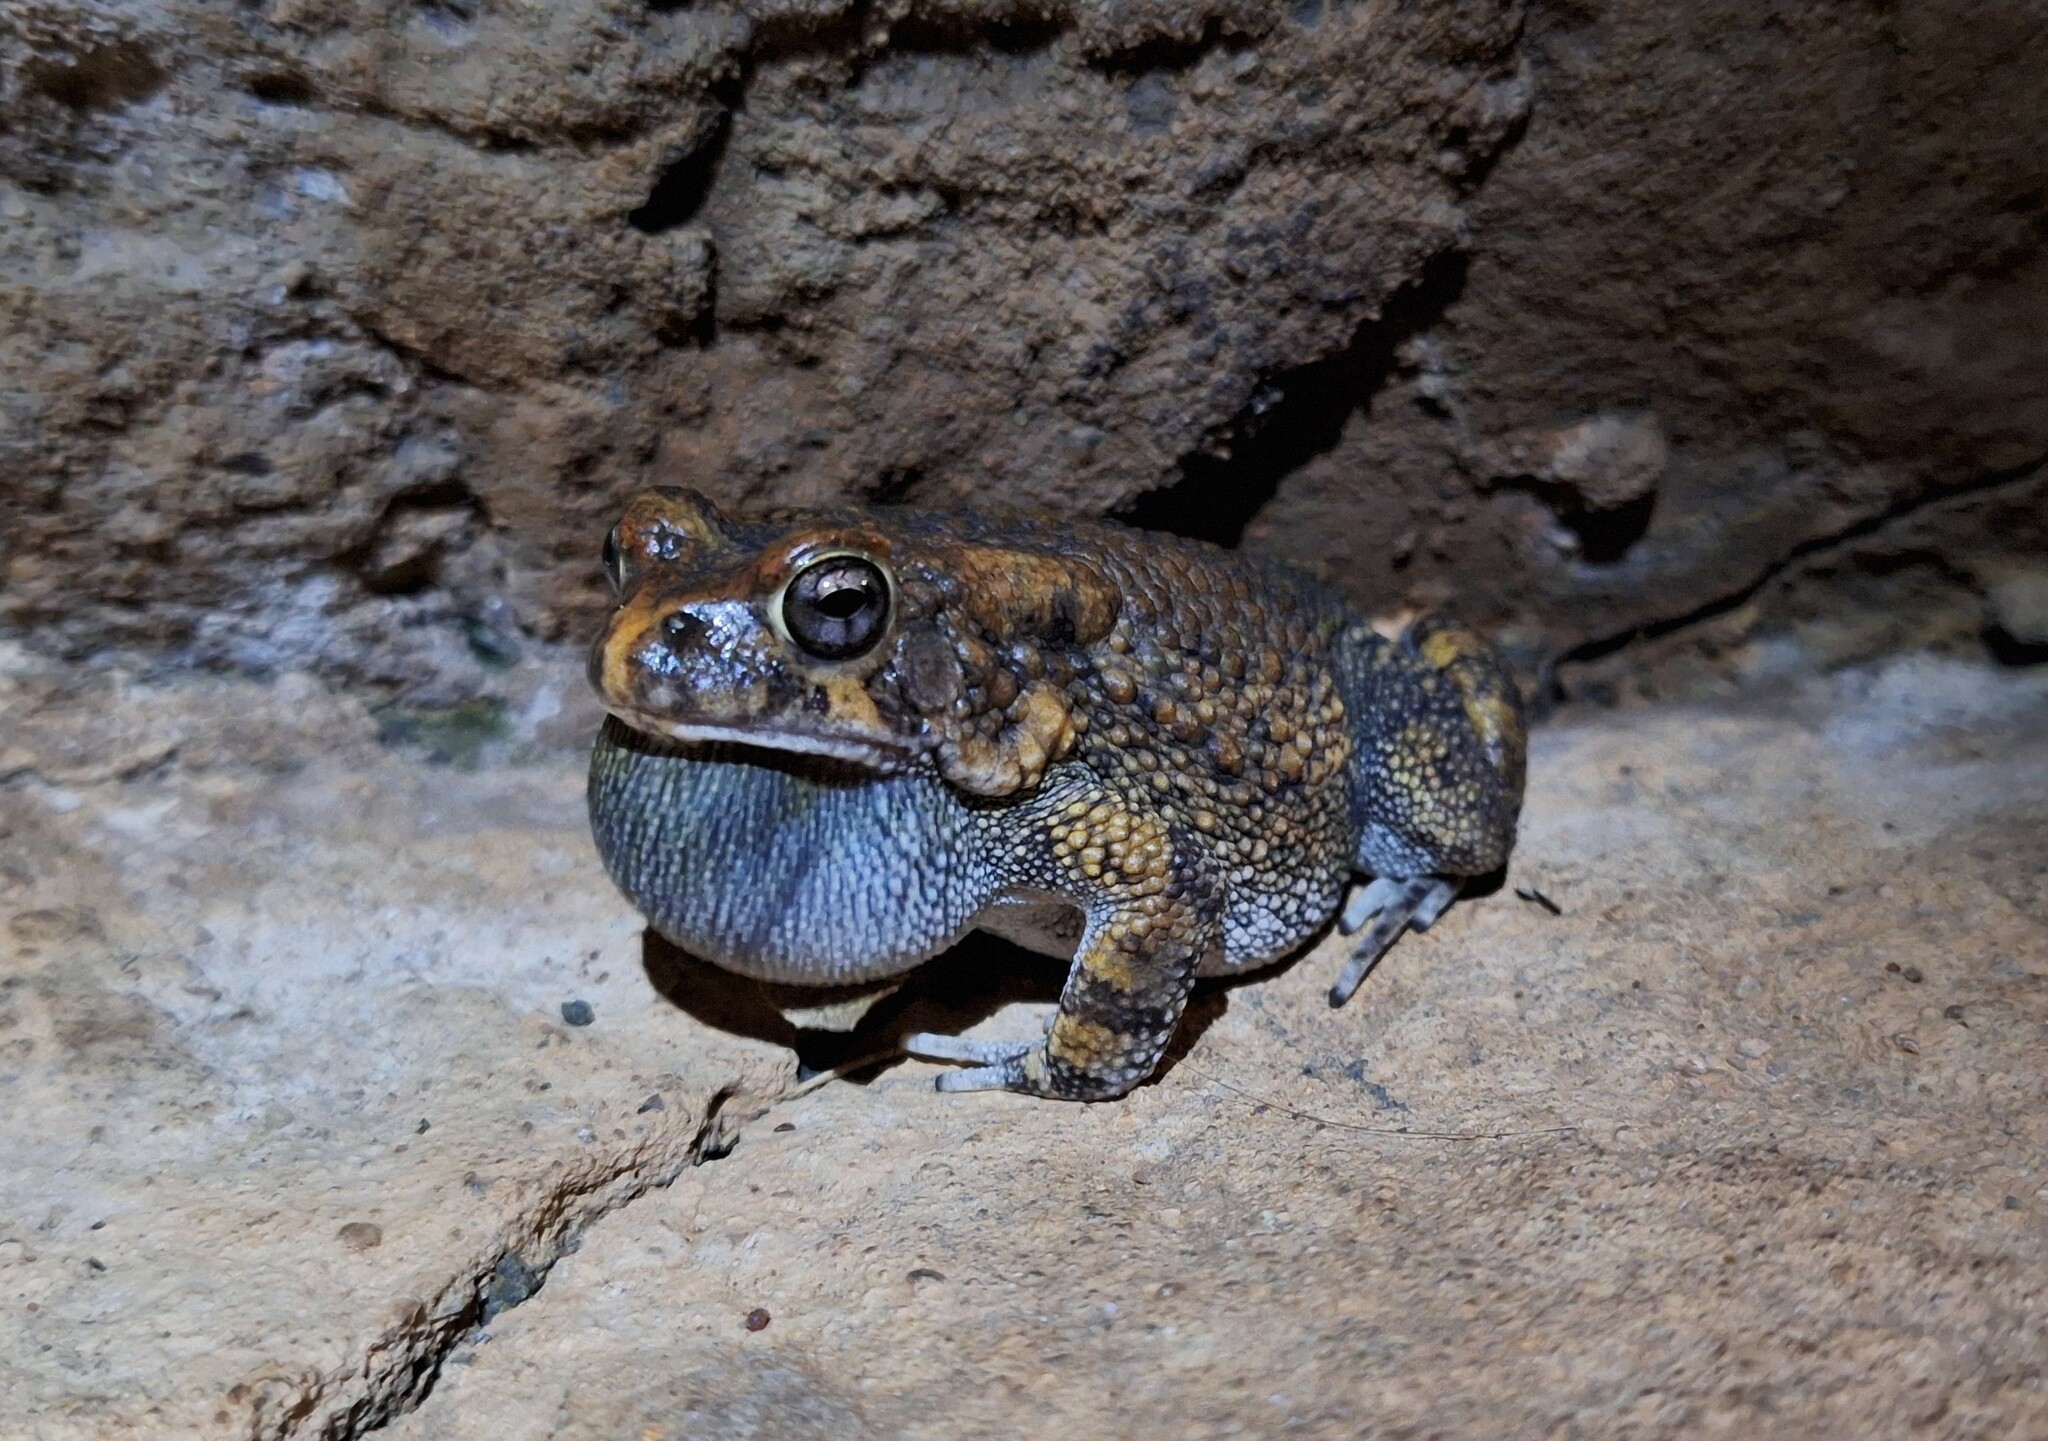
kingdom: Animalia
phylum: Chordata
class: Amphibia
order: Anura
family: Bufonidae
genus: Sclerophrys
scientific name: Sclerophrys pusilla
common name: Merten's striped toad
